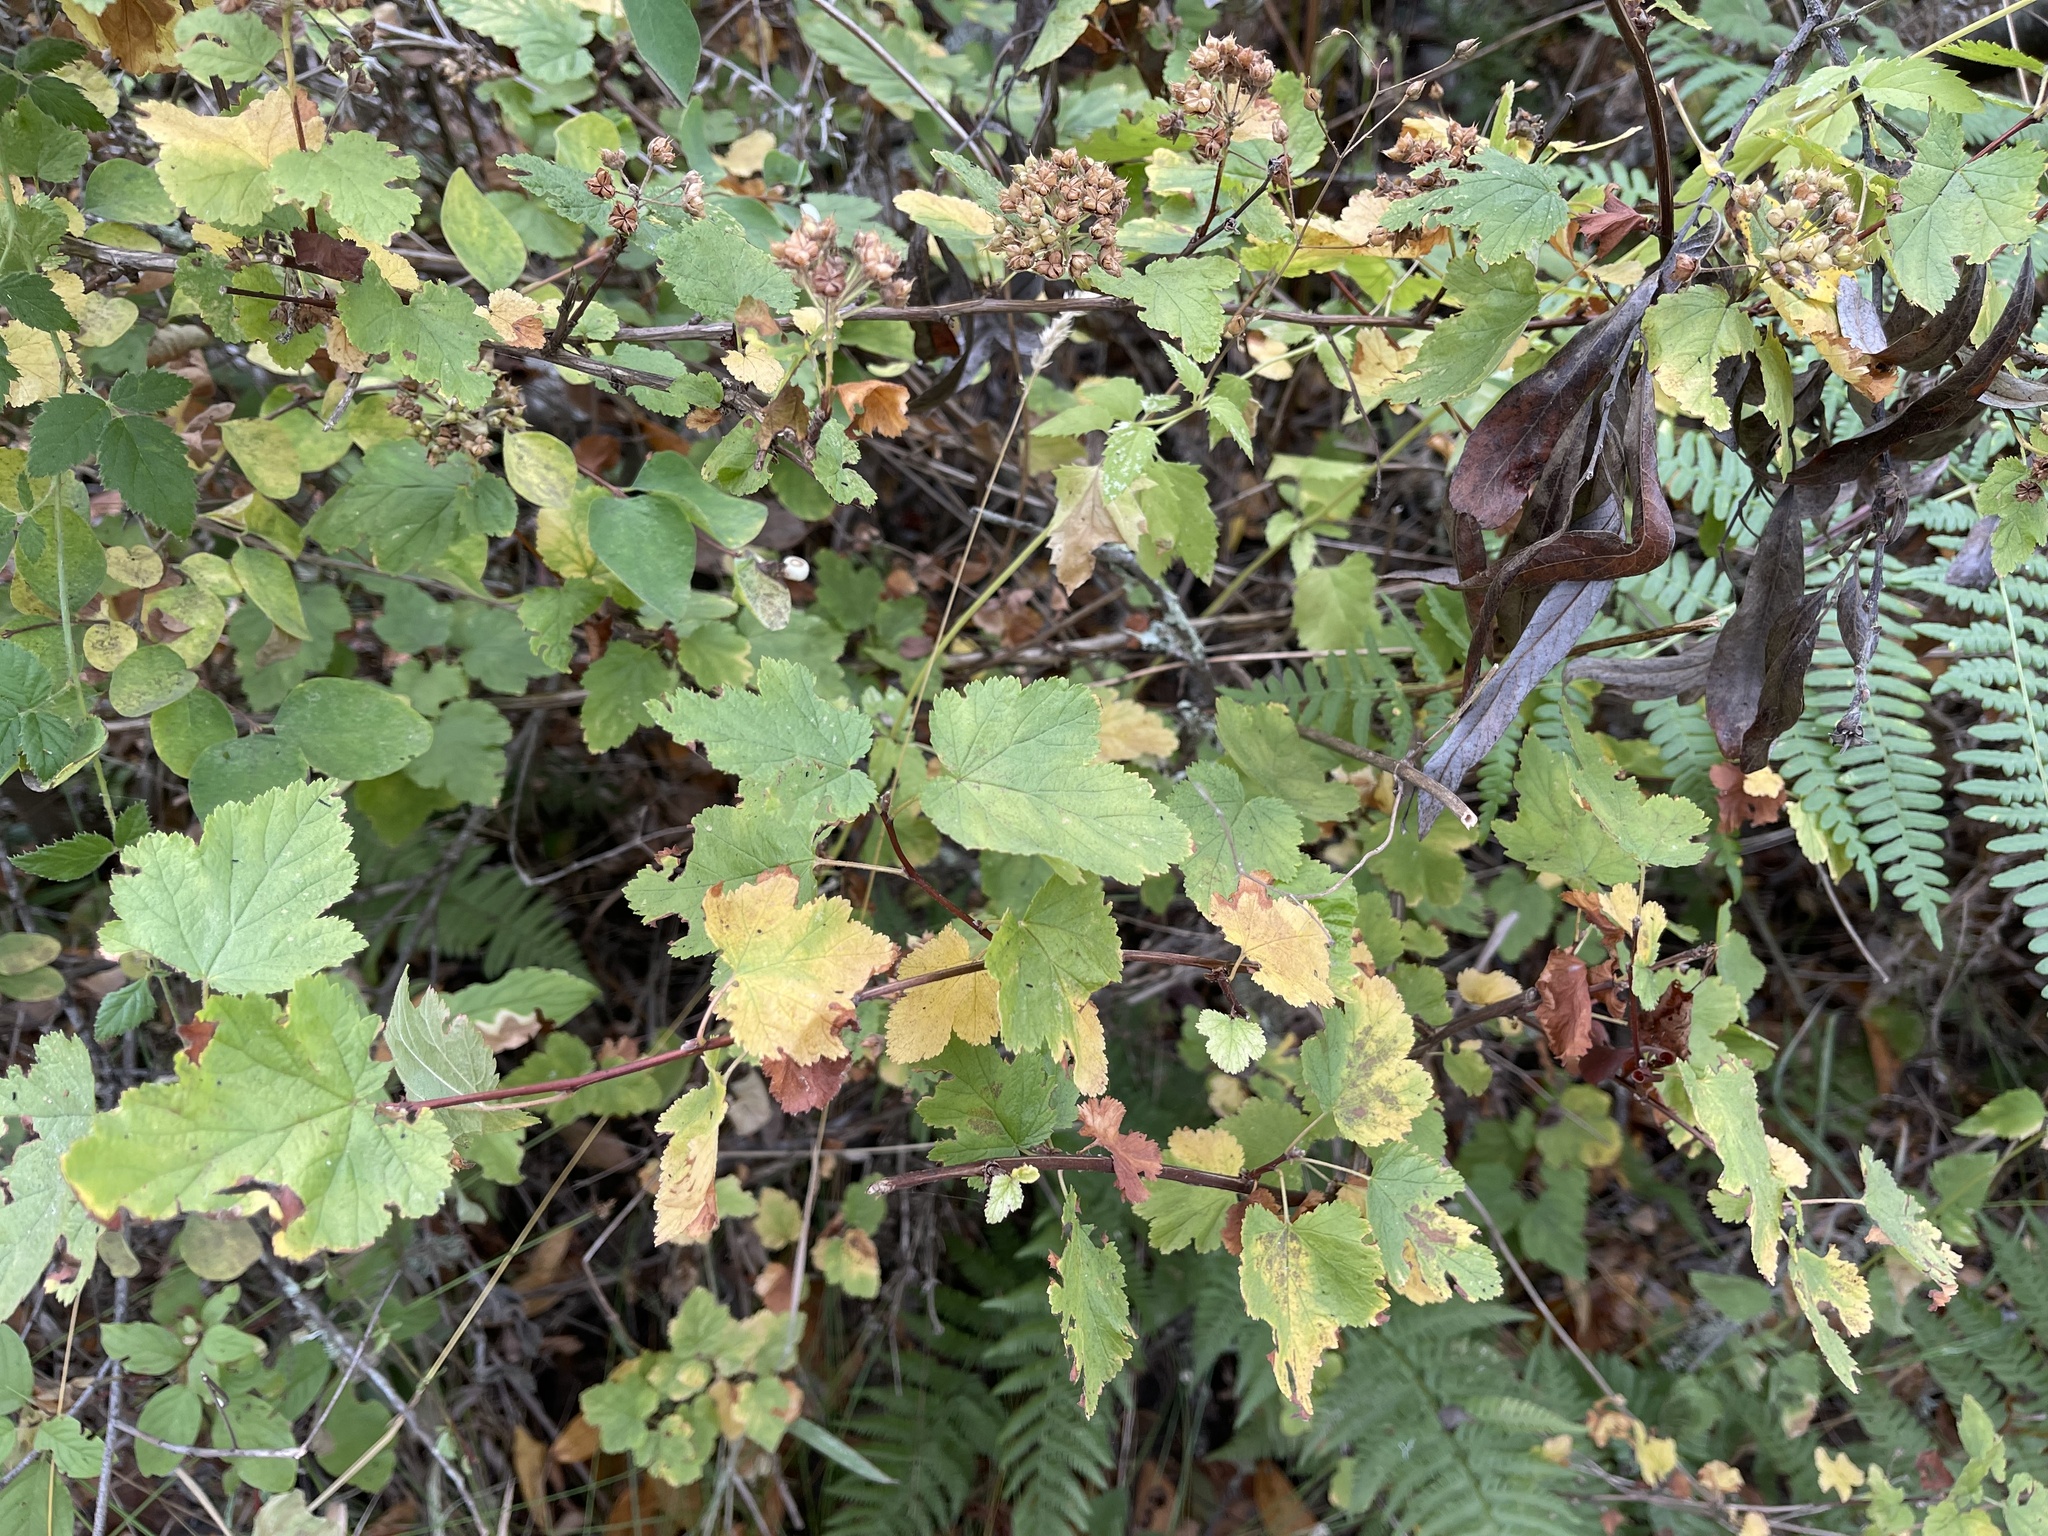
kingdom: Plantae
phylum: Tracheophyta
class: Magnoliopsida
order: Rosales
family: Rosaceae
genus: Physocarpus
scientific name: Physocarpus capitatus
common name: Pacific ninebark
